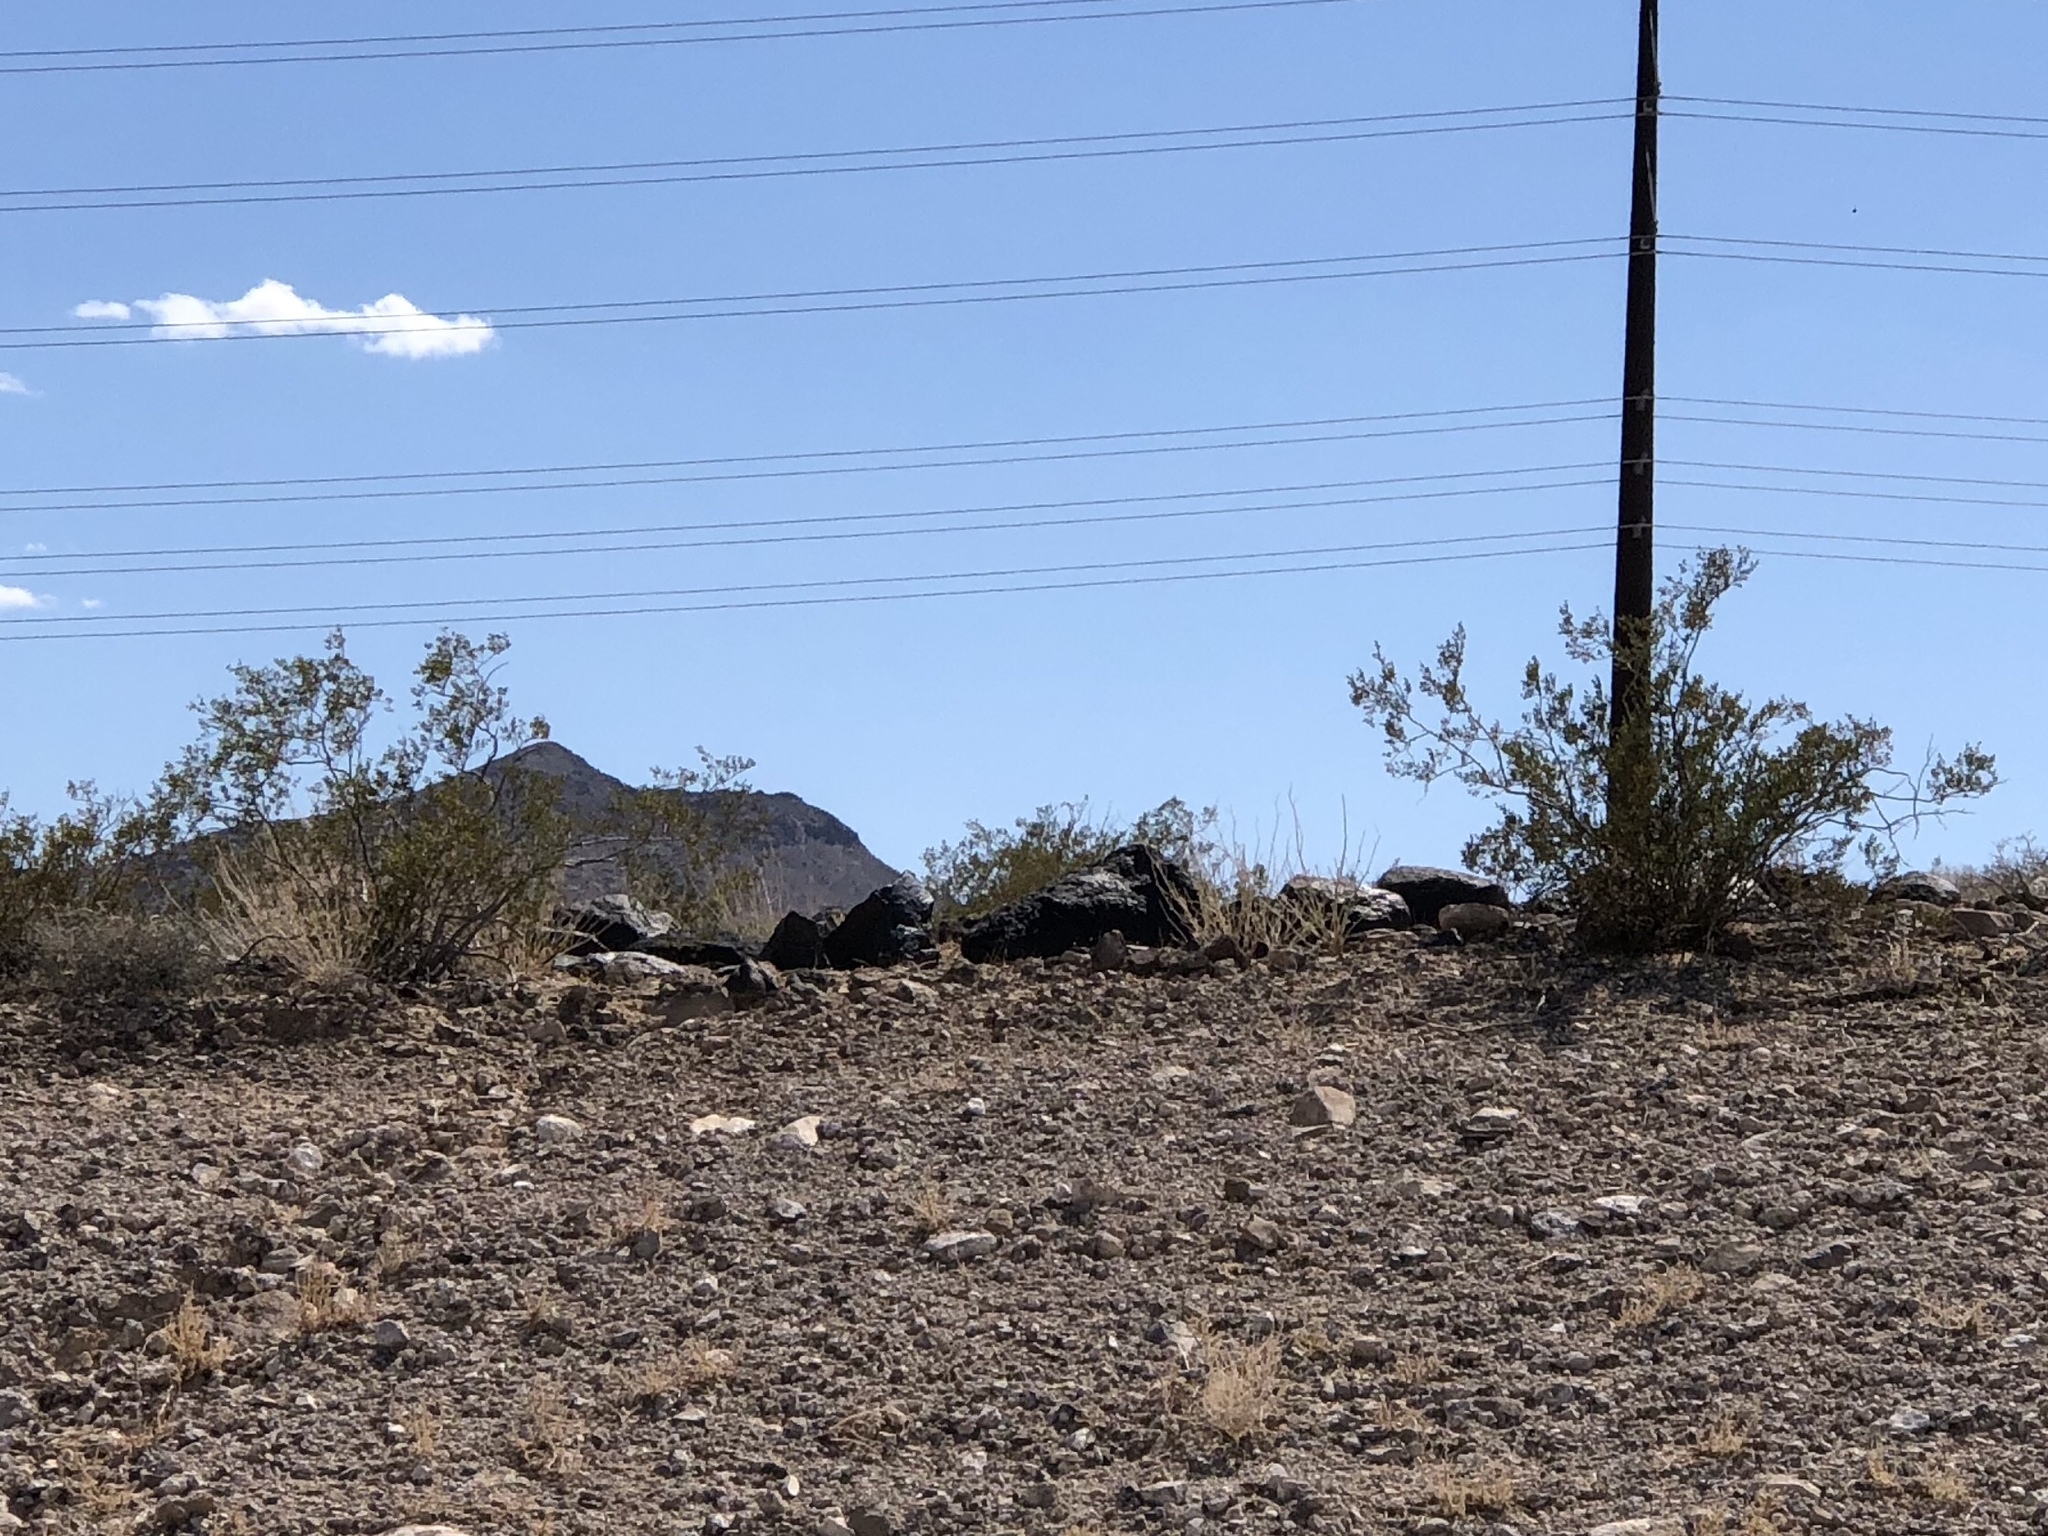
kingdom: Plantae
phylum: Tracheophyta
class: Magnoliopsida
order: Zygophyllales
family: Zygophyllaceae
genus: Larrea
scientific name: Larrea tridentata
